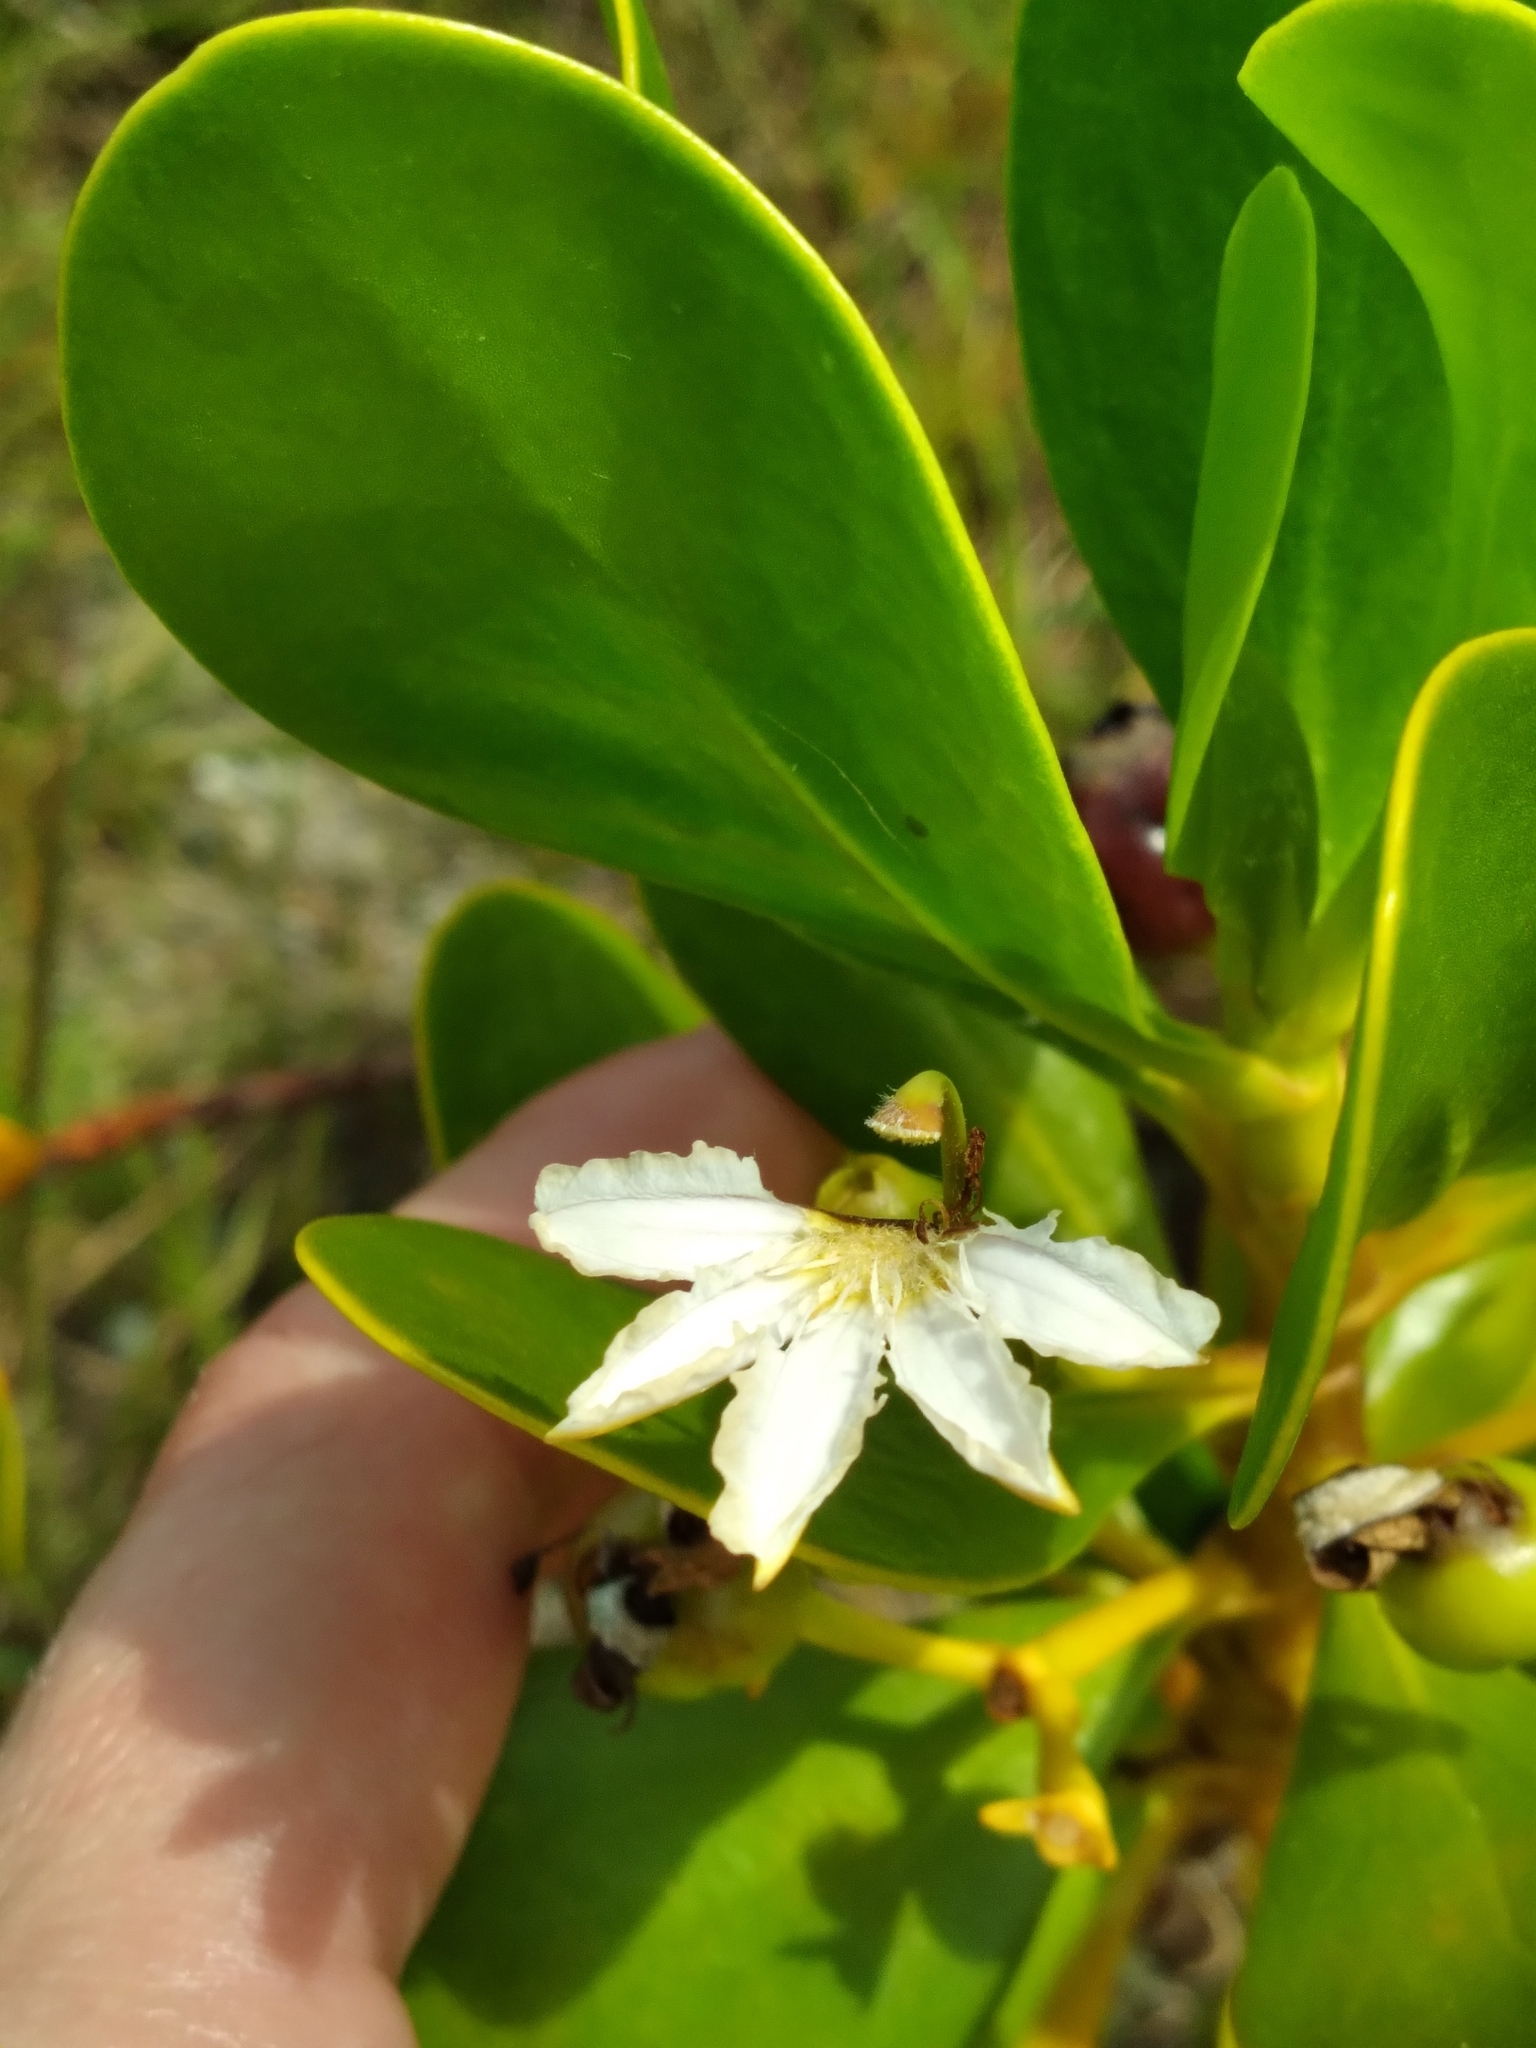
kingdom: Plantae
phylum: Tracheophyta
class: Magnoliopsida
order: Asterales
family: Goodeniaceae
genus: Scaevola
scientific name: Scaevola plumieri
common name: Gull feed
